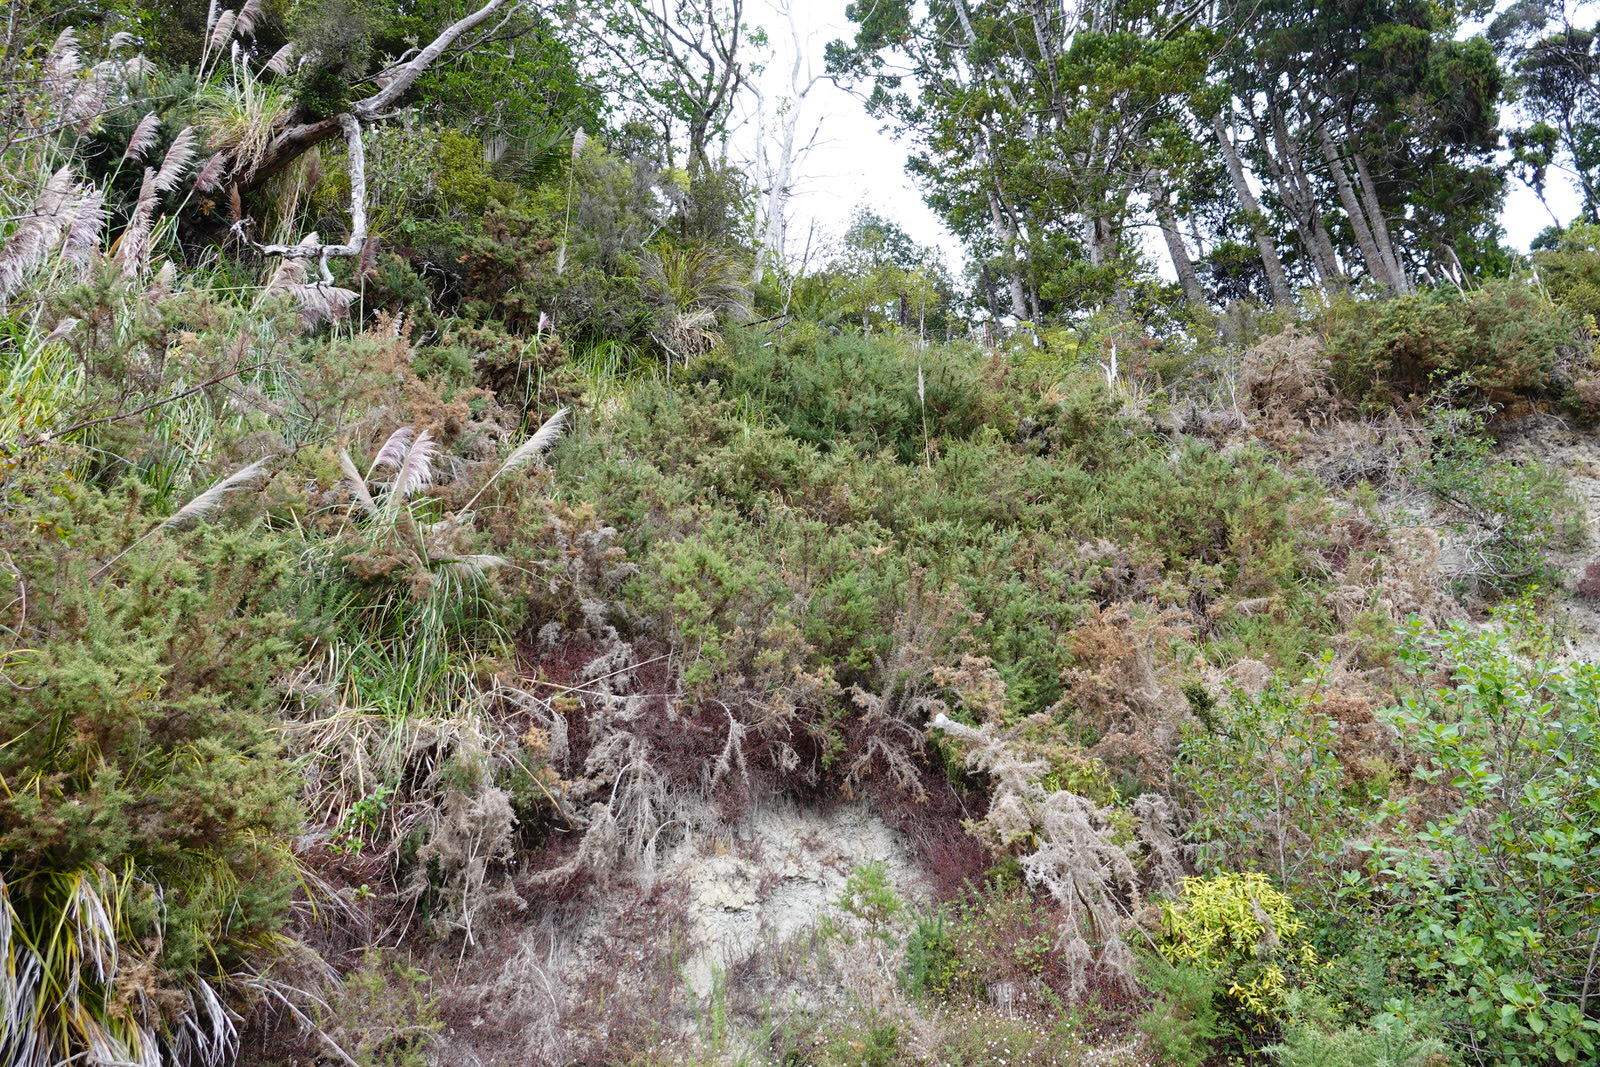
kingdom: Plantae
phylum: Tracheophyta
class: Magnoliopsida
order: Fabales
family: Fabaceae
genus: Ulex
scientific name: Ulex europaeus
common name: Common gorse
